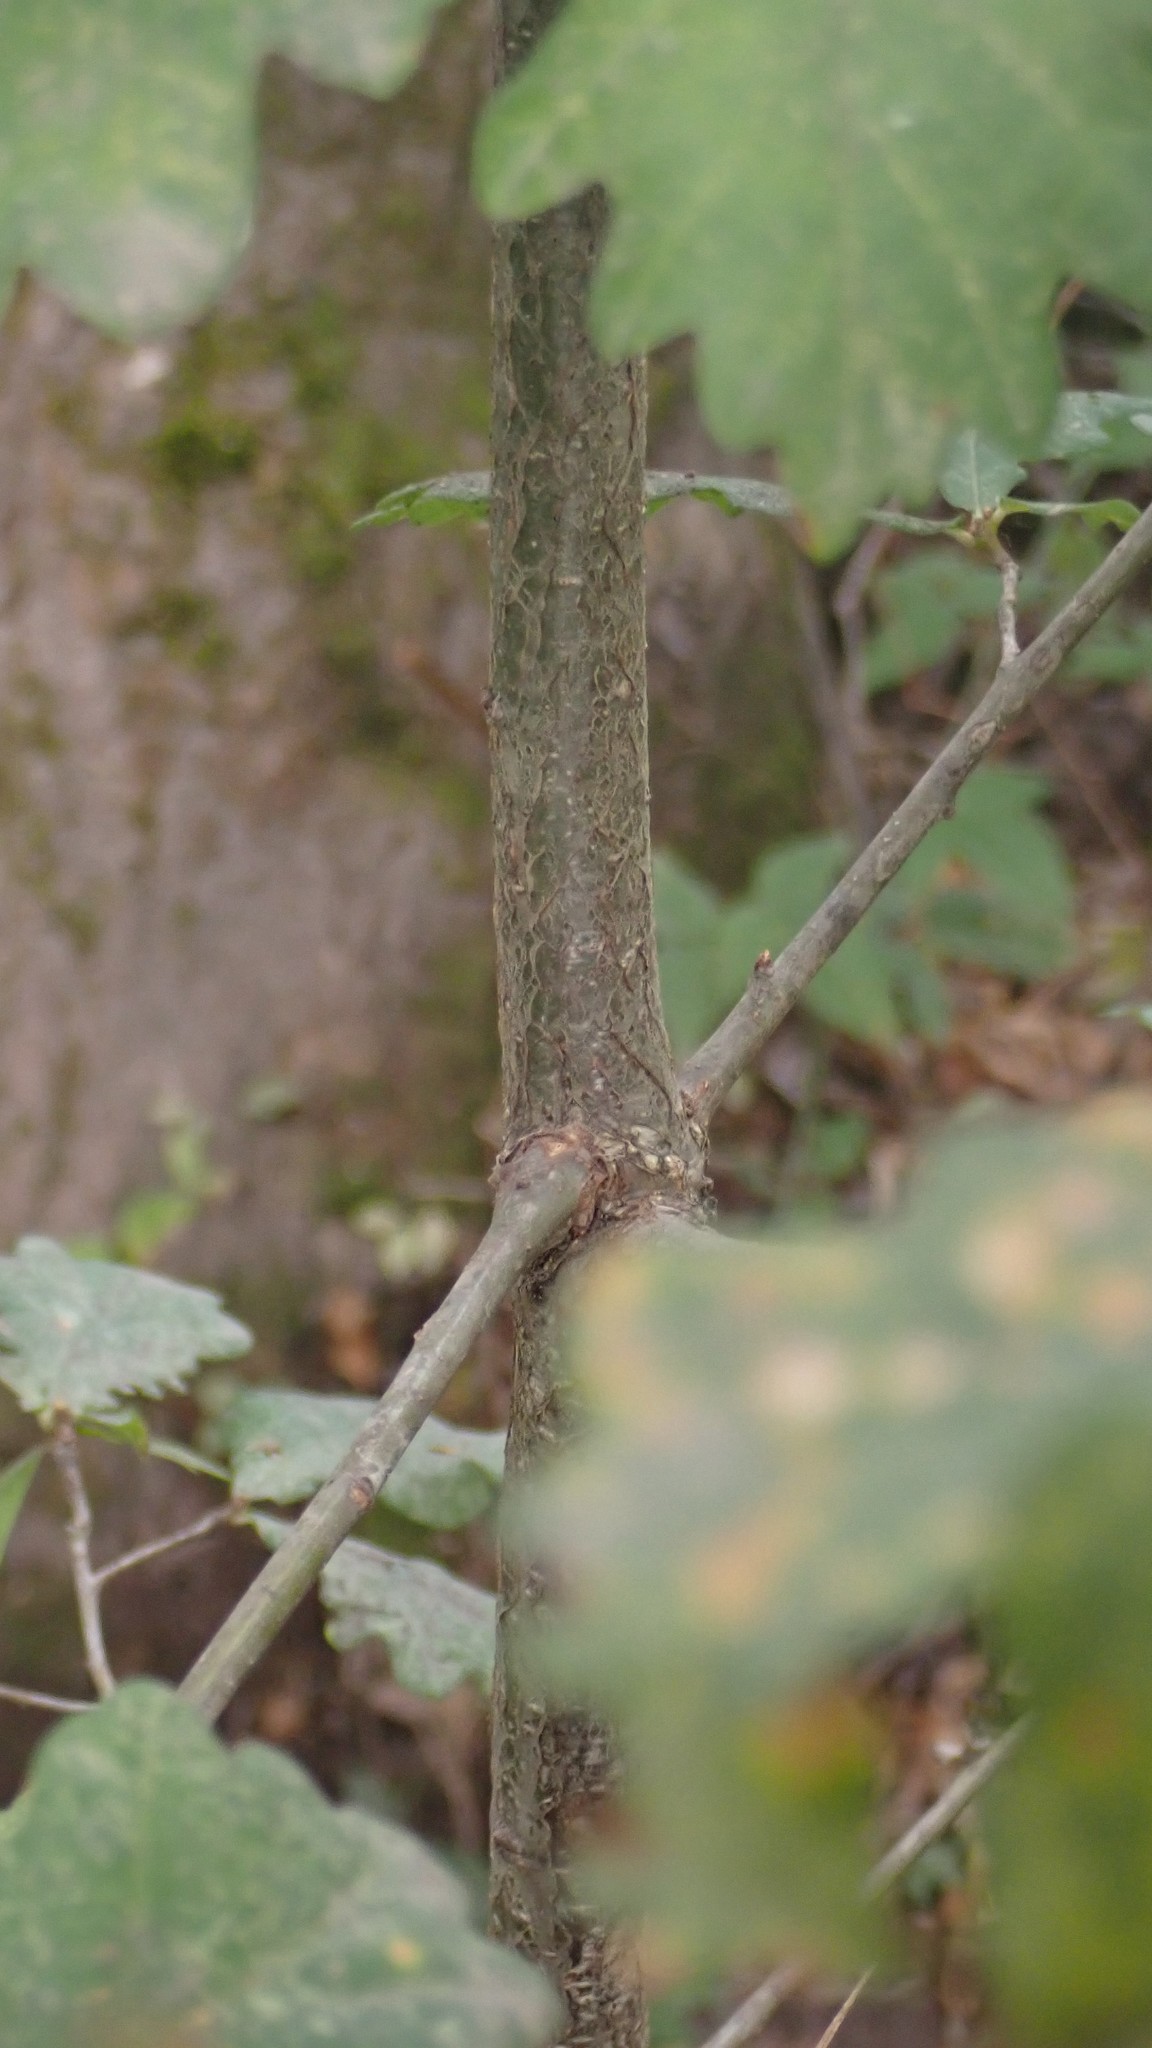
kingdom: Plantae
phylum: Tracheophyta
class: Magnoliopsida
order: Fagales
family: Fagaceae
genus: Quercus
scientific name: Quercus robur
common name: Pedunculate oak
